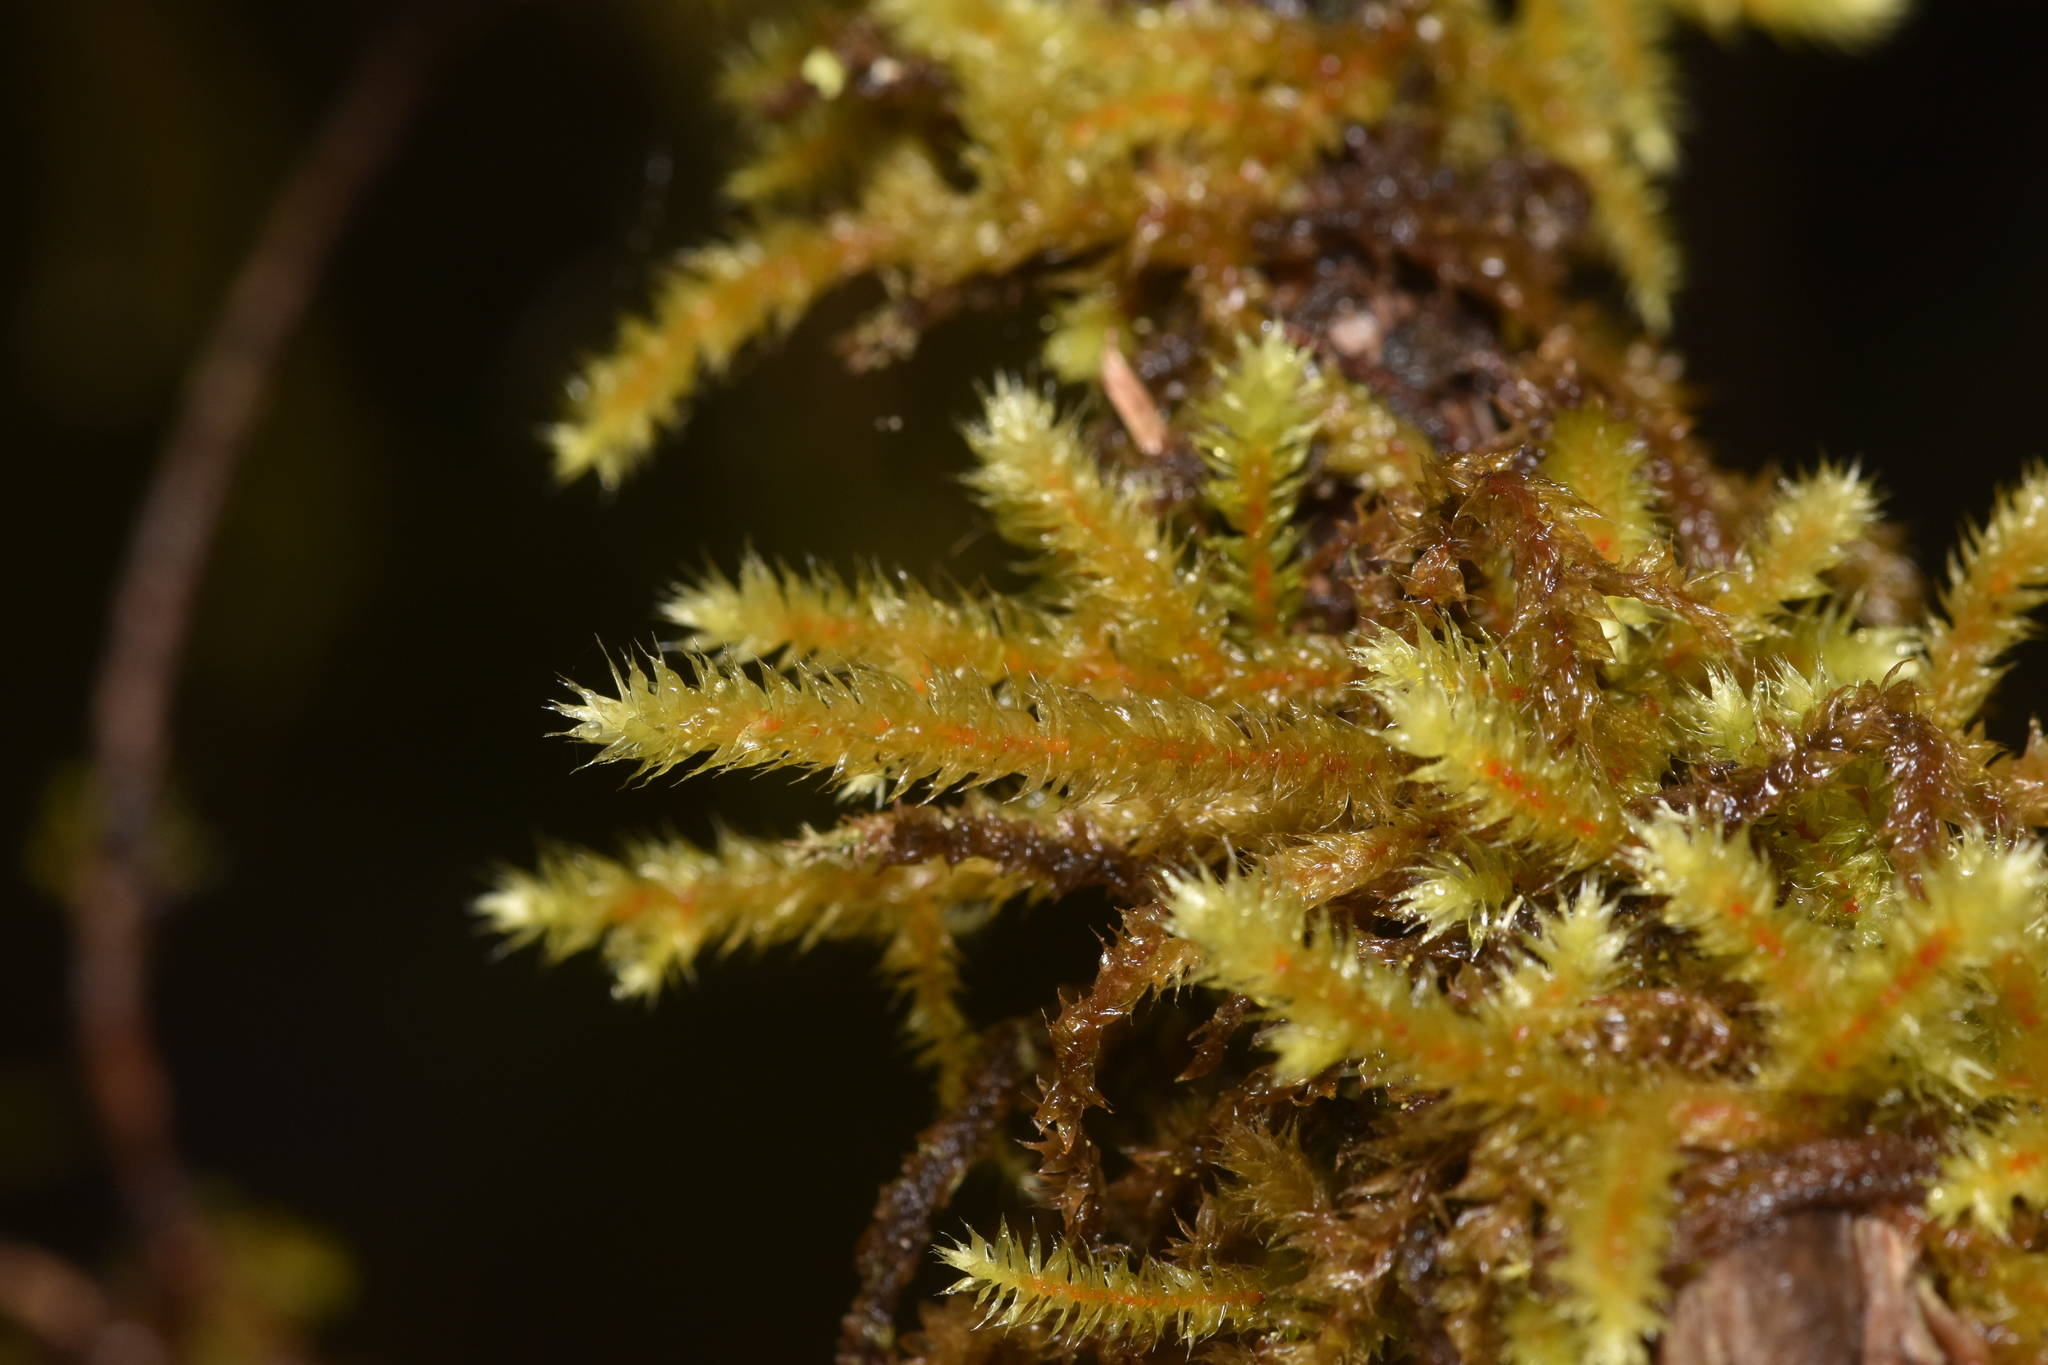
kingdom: Plantae
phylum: Bryophyta
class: Bryopsida
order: Hypnales
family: Antitrichiaceae
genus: Antitrichia
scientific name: Antitrichia curtipendula
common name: Pendulous wing-moss
